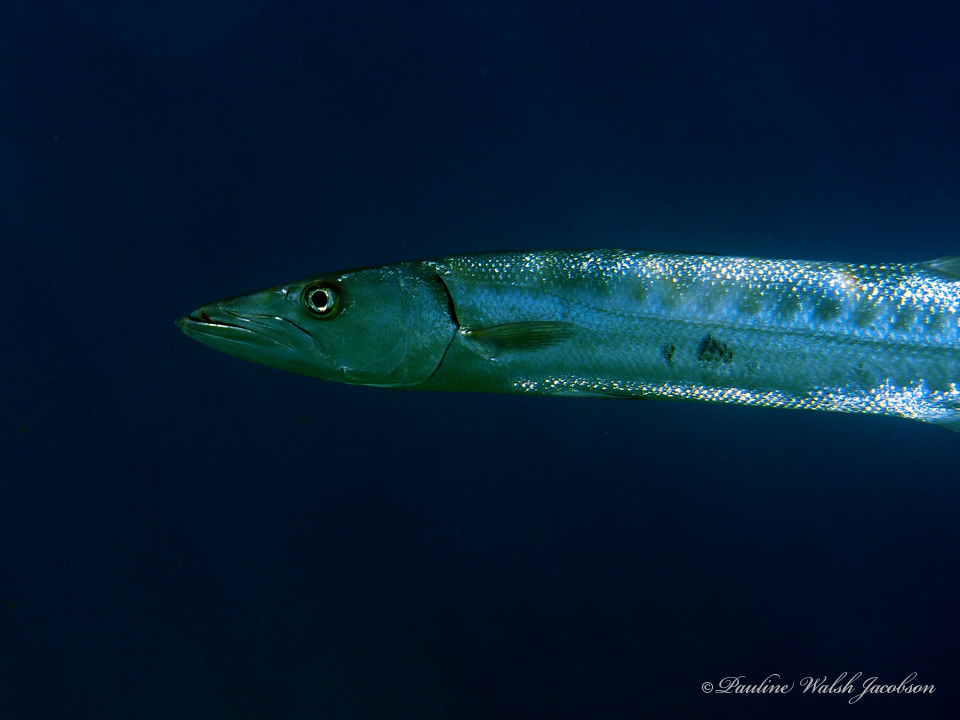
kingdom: Animalia
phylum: Chordata
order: Perciformes
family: Sphyraenidae
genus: Sphyraena
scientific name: Sphyraena barracuda
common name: Great barracuda
